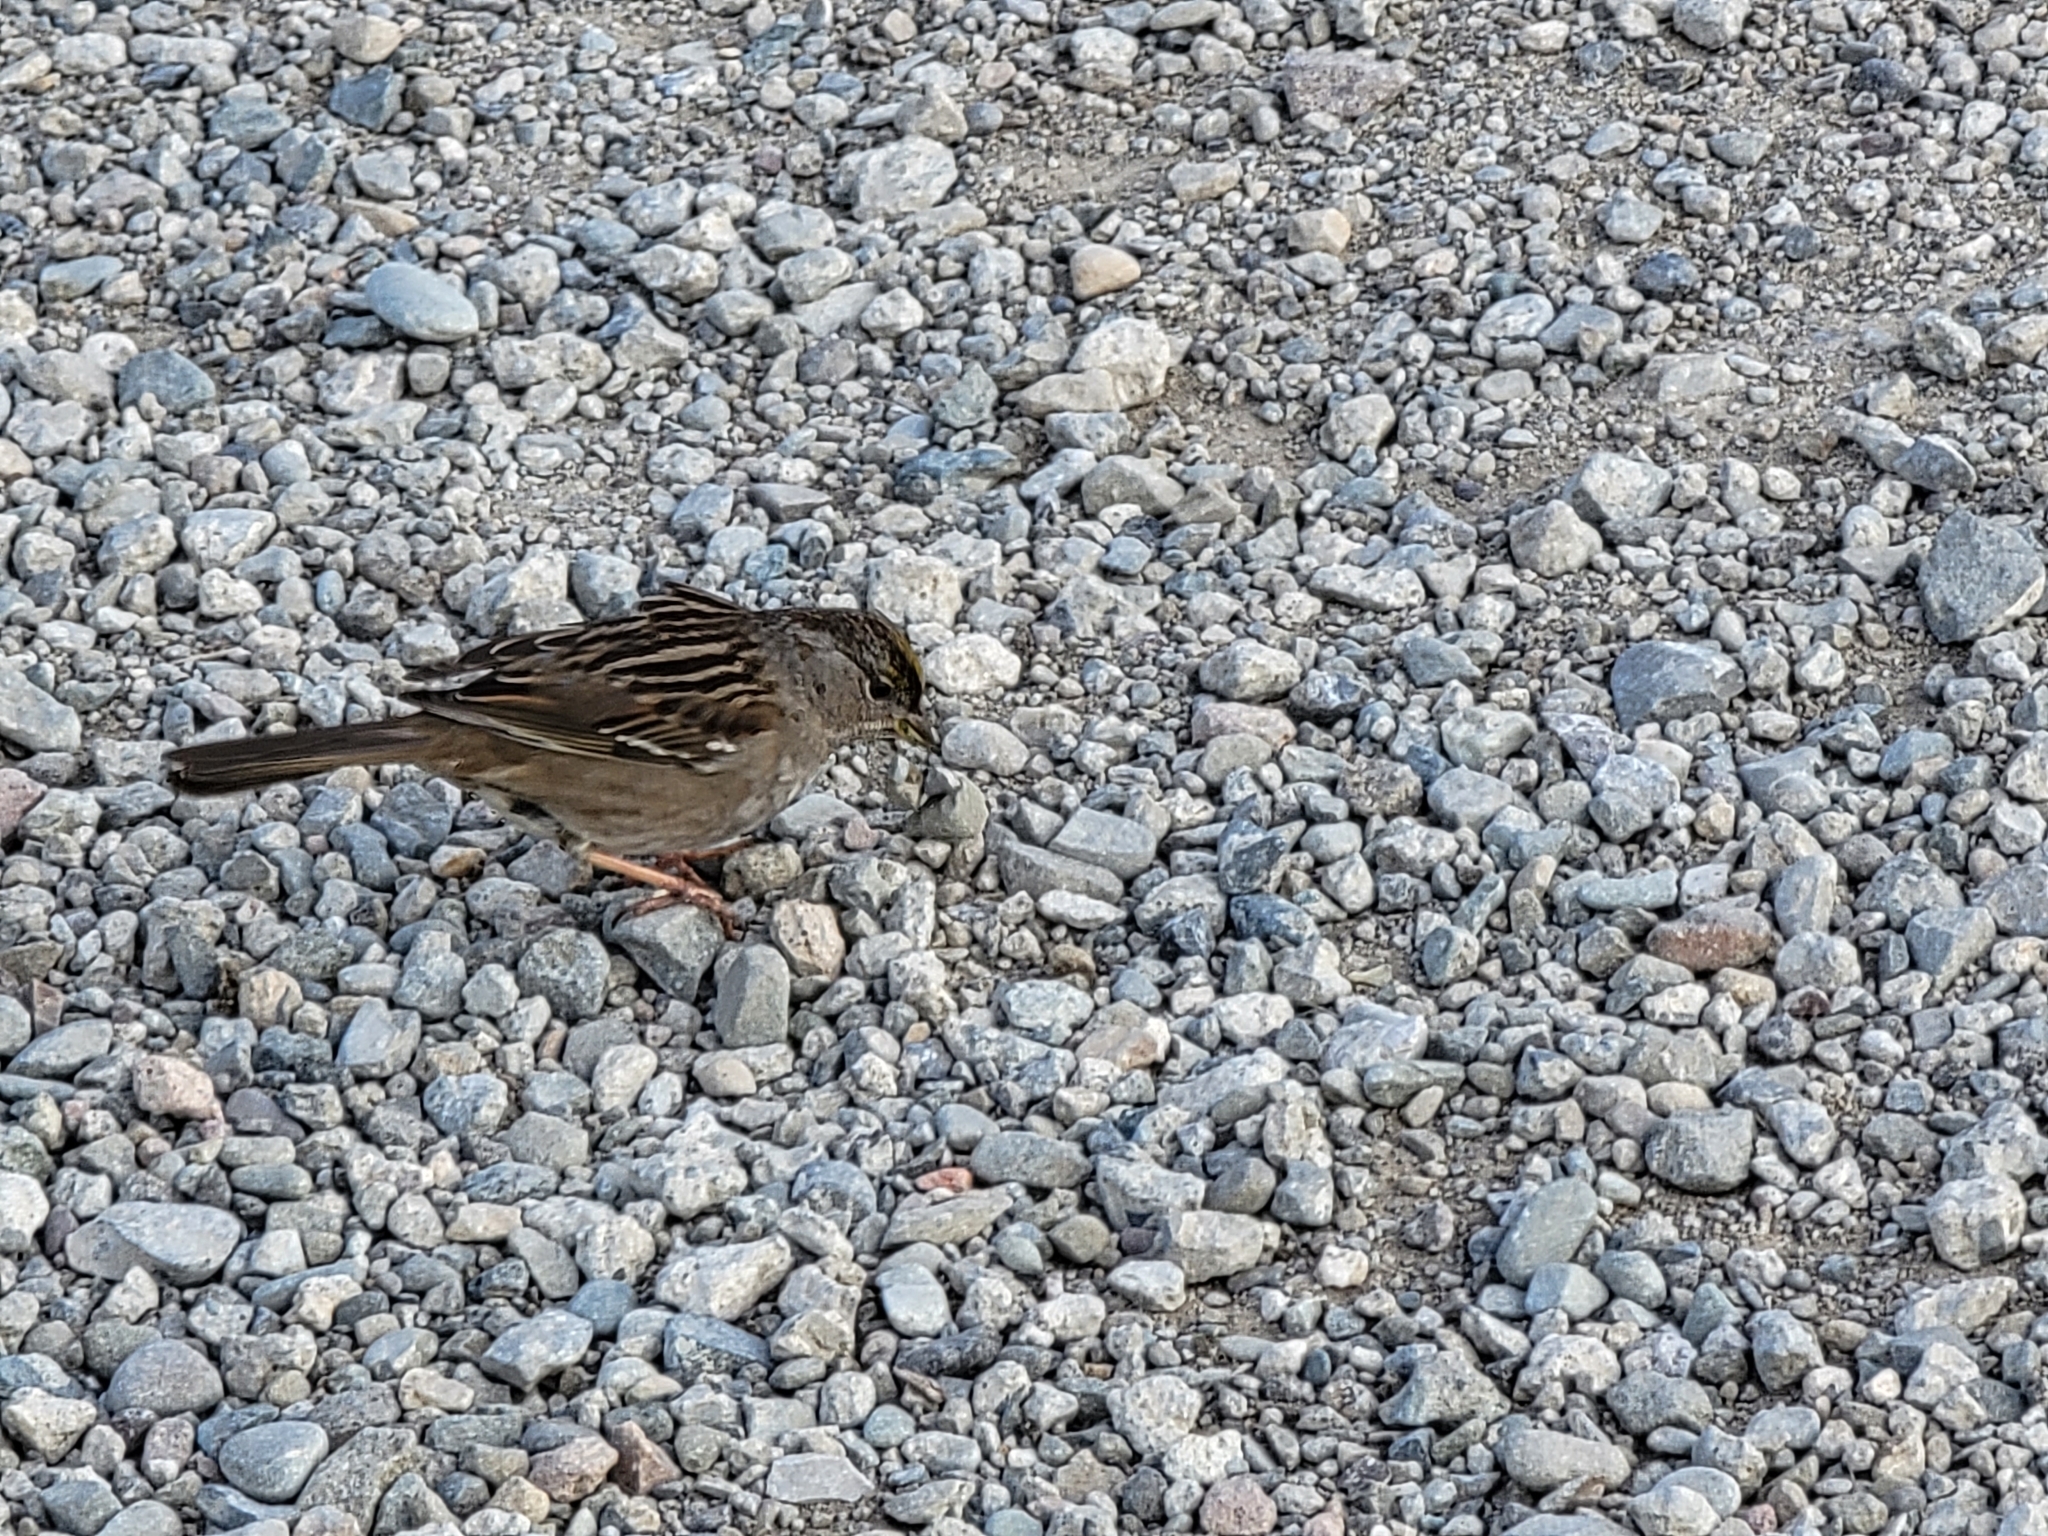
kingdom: Animalia
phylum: Chordata
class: Aves
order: Passeriformes
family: Passerellidae
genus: Zonotrichia
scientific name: Zonotrichia atricapilla
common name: Golden-crowned sparrow
